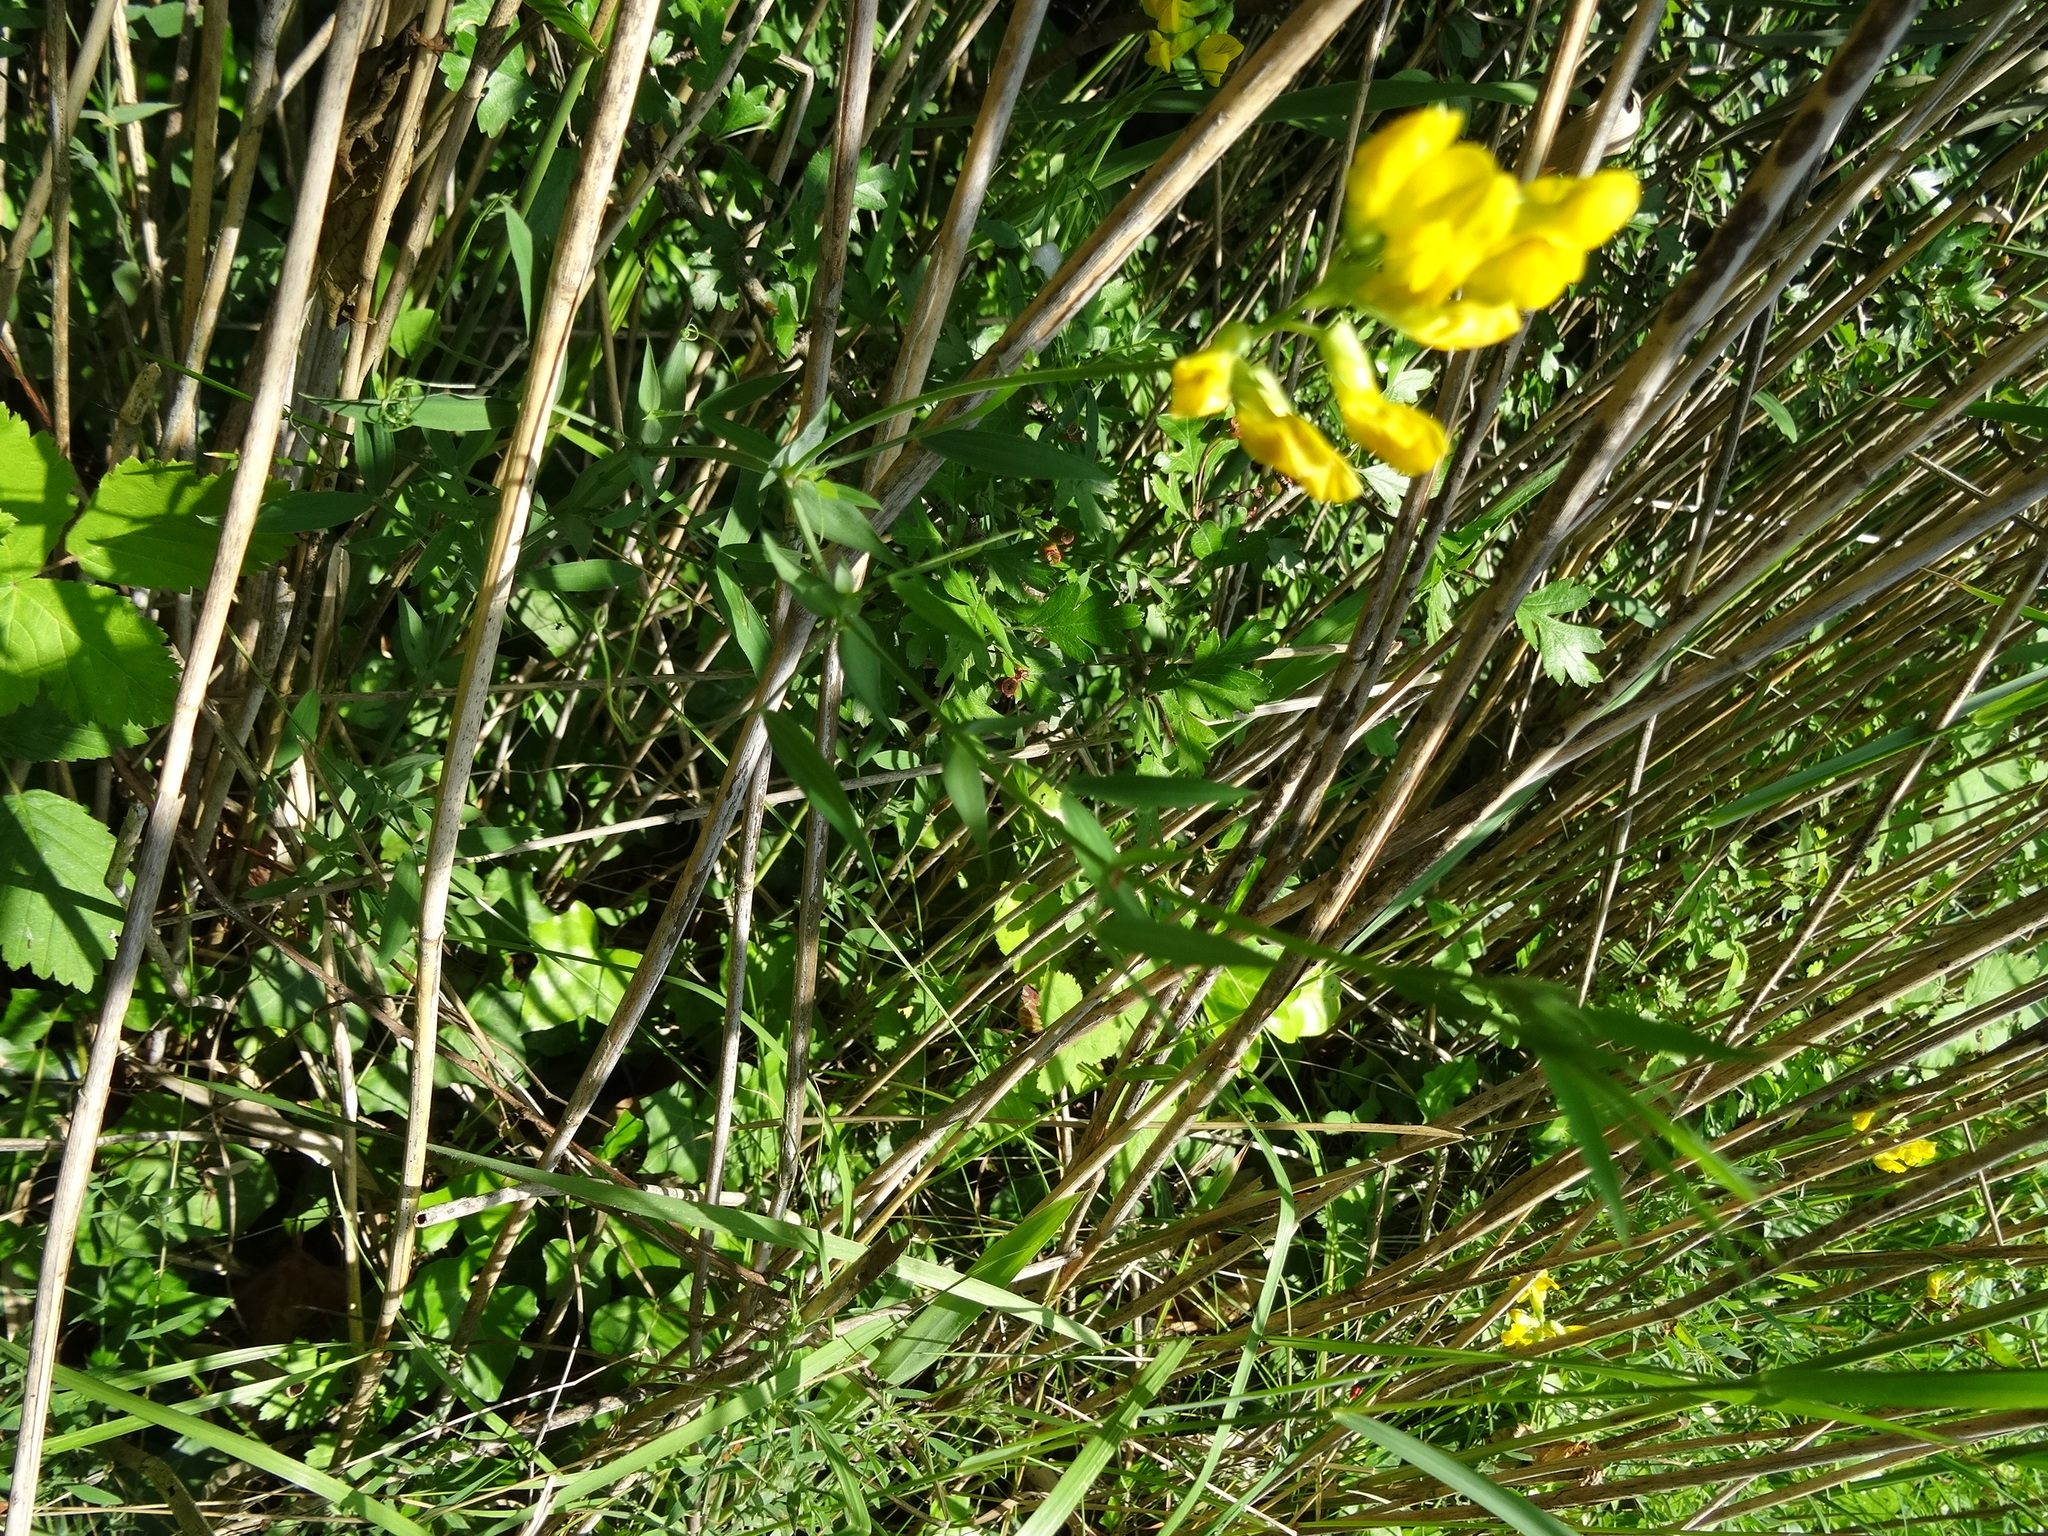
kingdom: Plantae
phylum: Tracheophyta
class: Magnoliopsida
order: Fabales
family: Fabaceae
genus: Lathyrus
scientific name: Lathyrus pratensis
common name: Meadow vetchling
